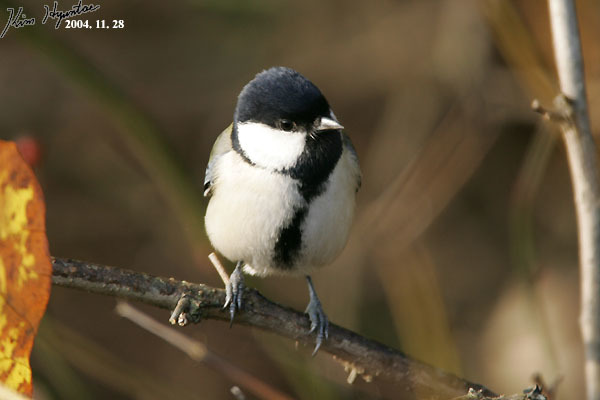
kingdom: Animalia
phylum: Chordata
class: Aves
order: Passeriformes
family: Paridae
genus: Parus
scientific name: Parus minor
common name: Japanese tit
